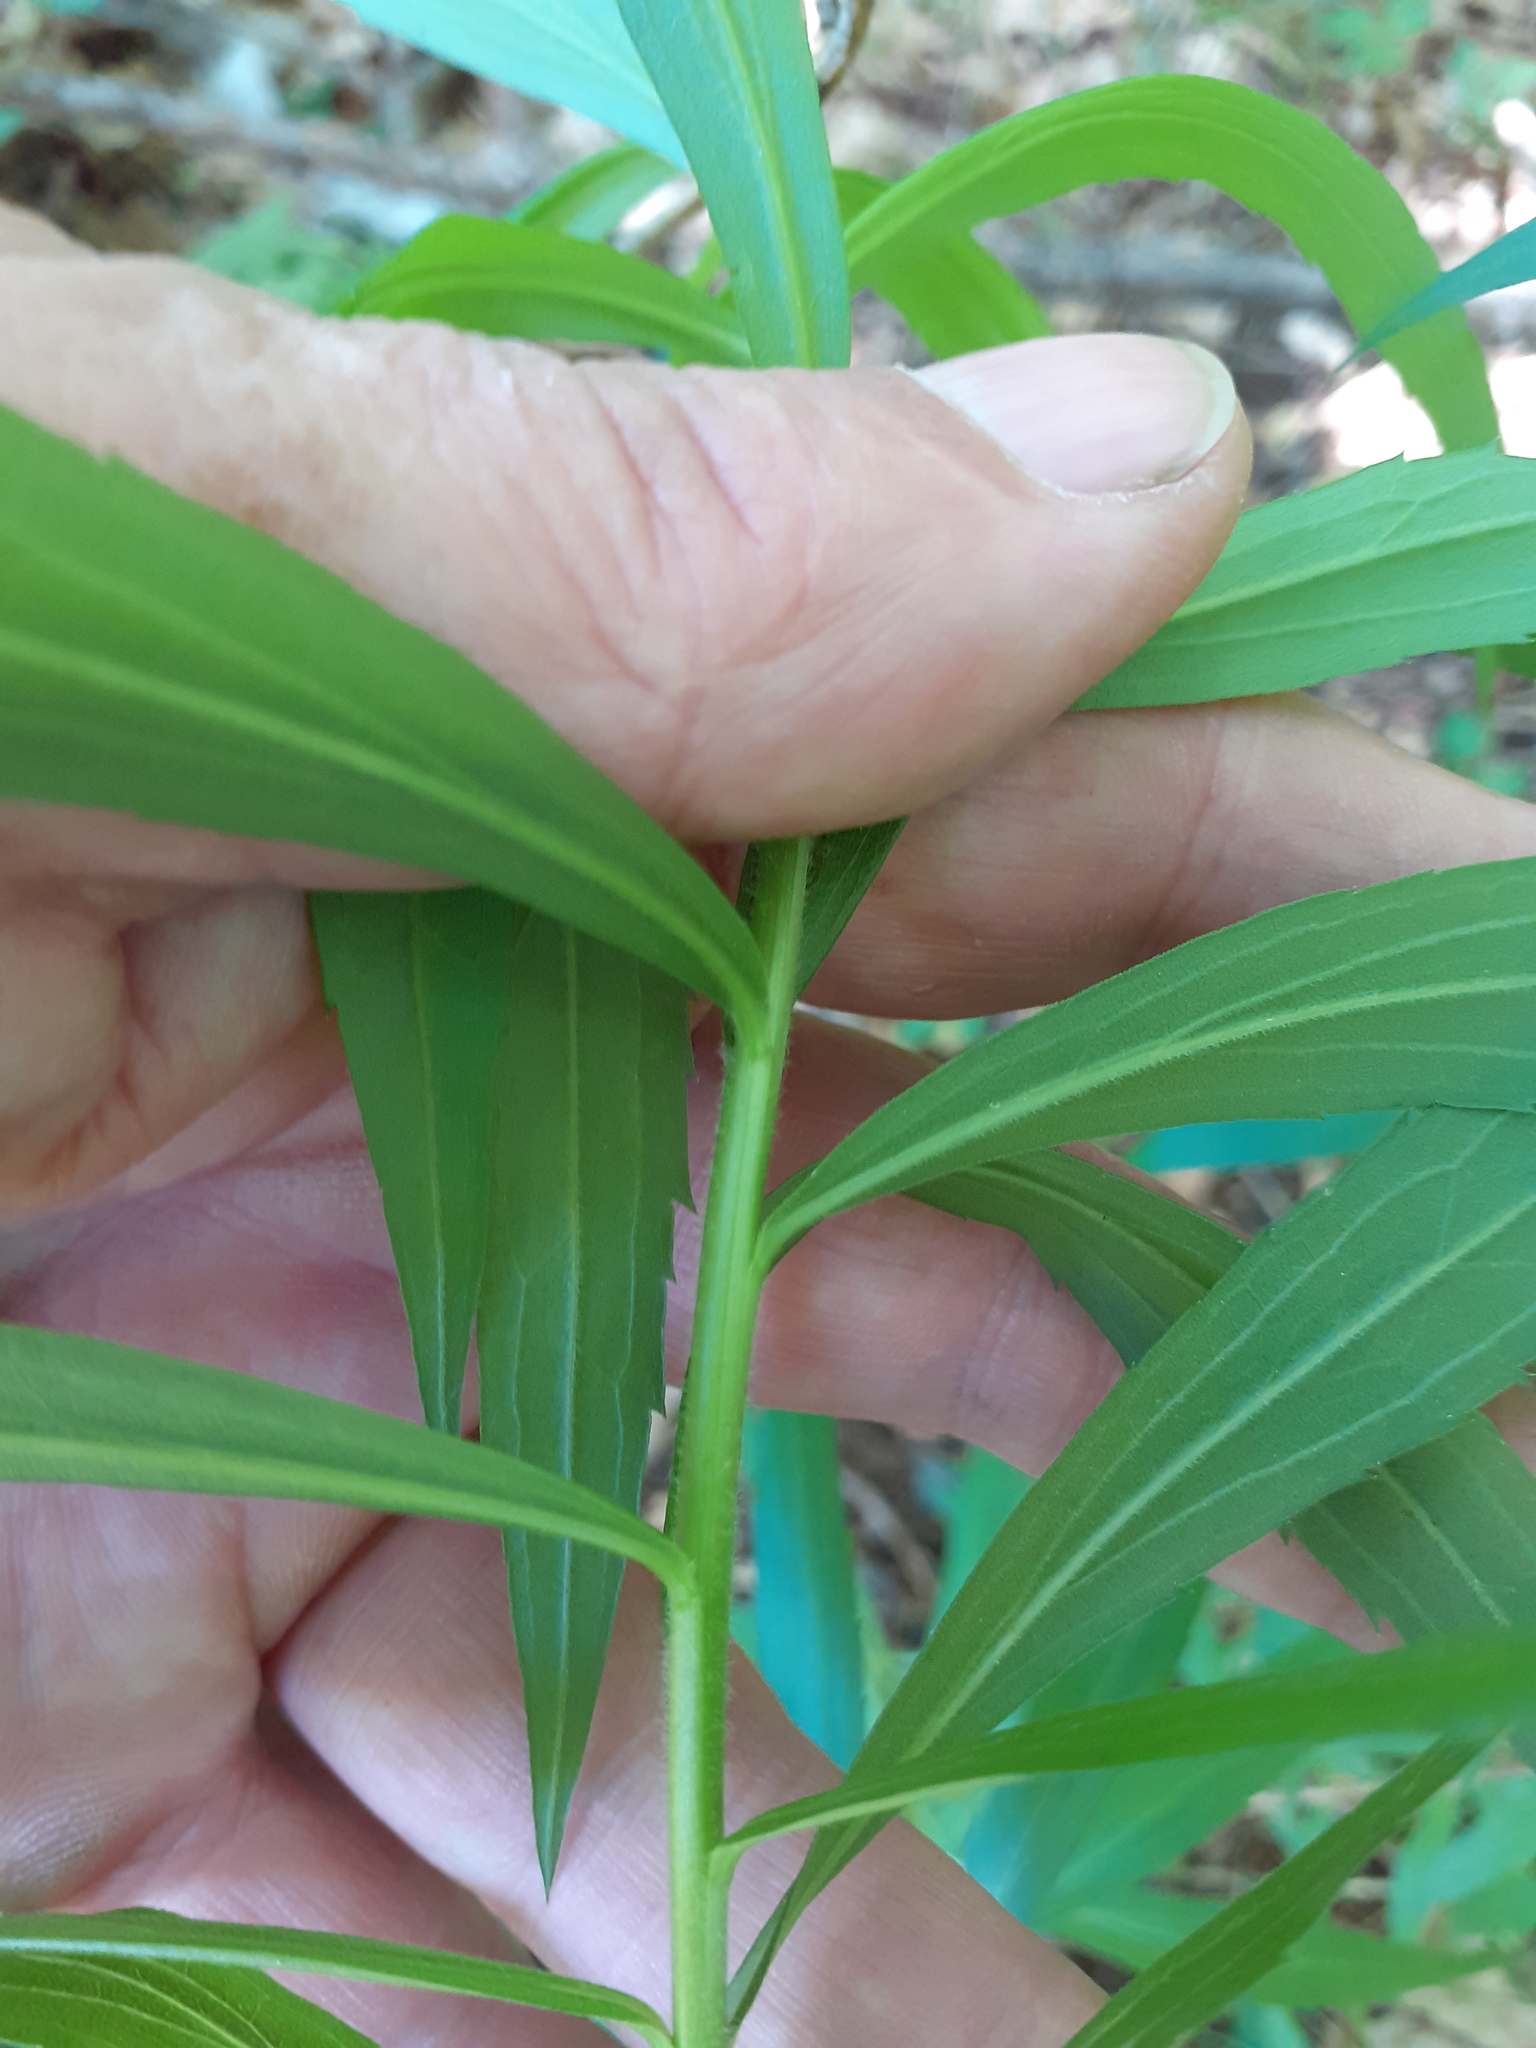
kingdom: Plantae
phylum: Tracheophyta
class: Magnoliopsida
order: Asterales
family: Asteraceae
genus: Solidago
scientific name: Solidago canadensis
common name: Canada goldenrod
